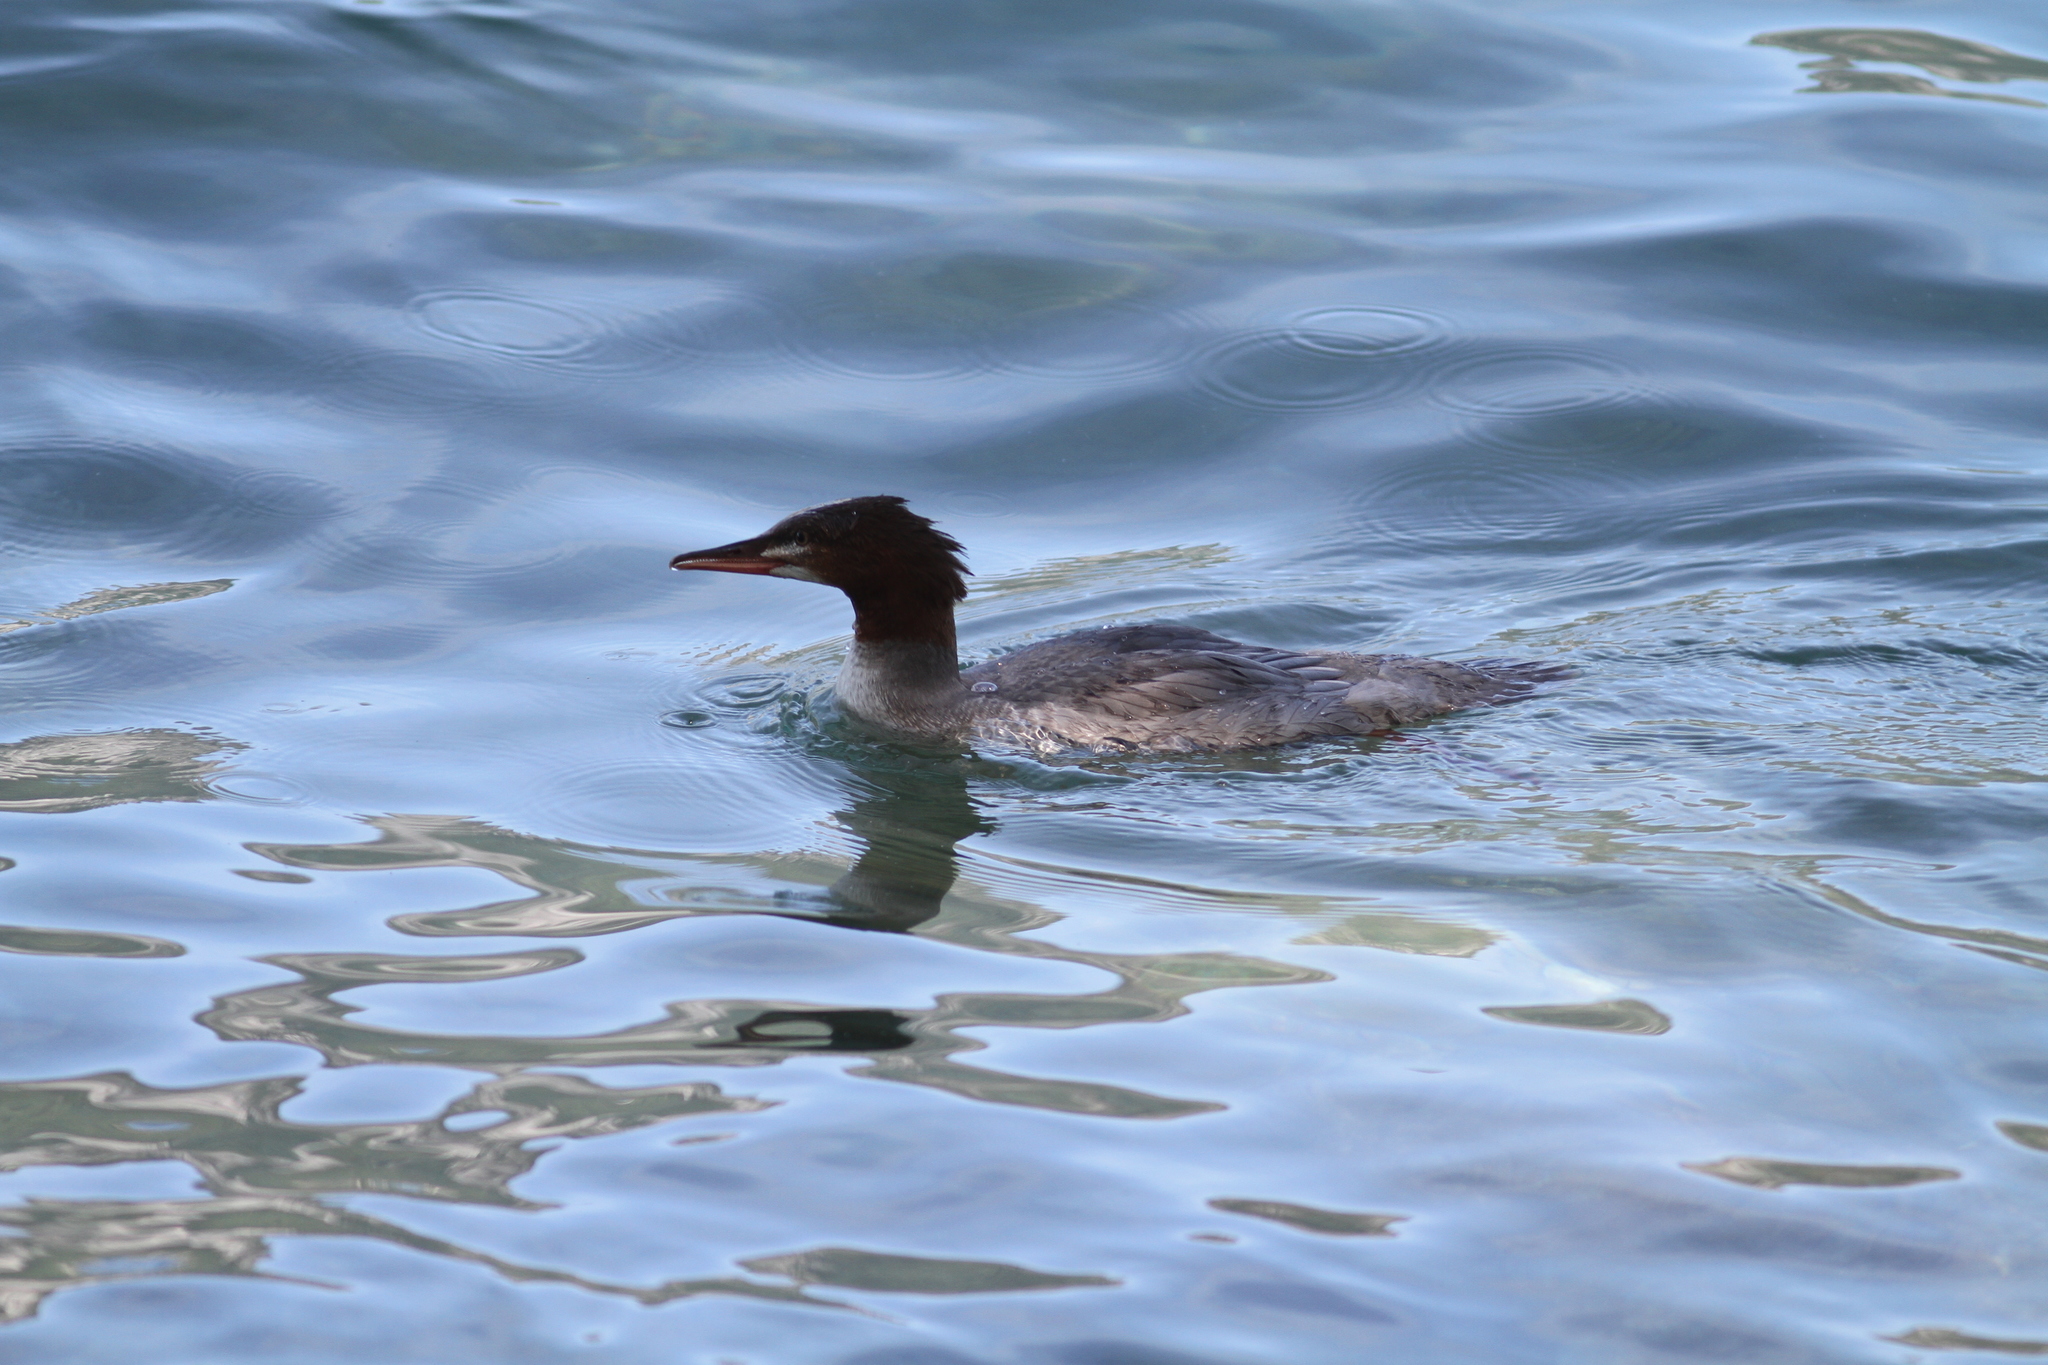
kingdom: Animalia
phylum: Chordata
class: Aves
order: Anseriformes
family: Anatidae
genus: Mergus
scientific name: Mergus merganser
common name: Common merganser
